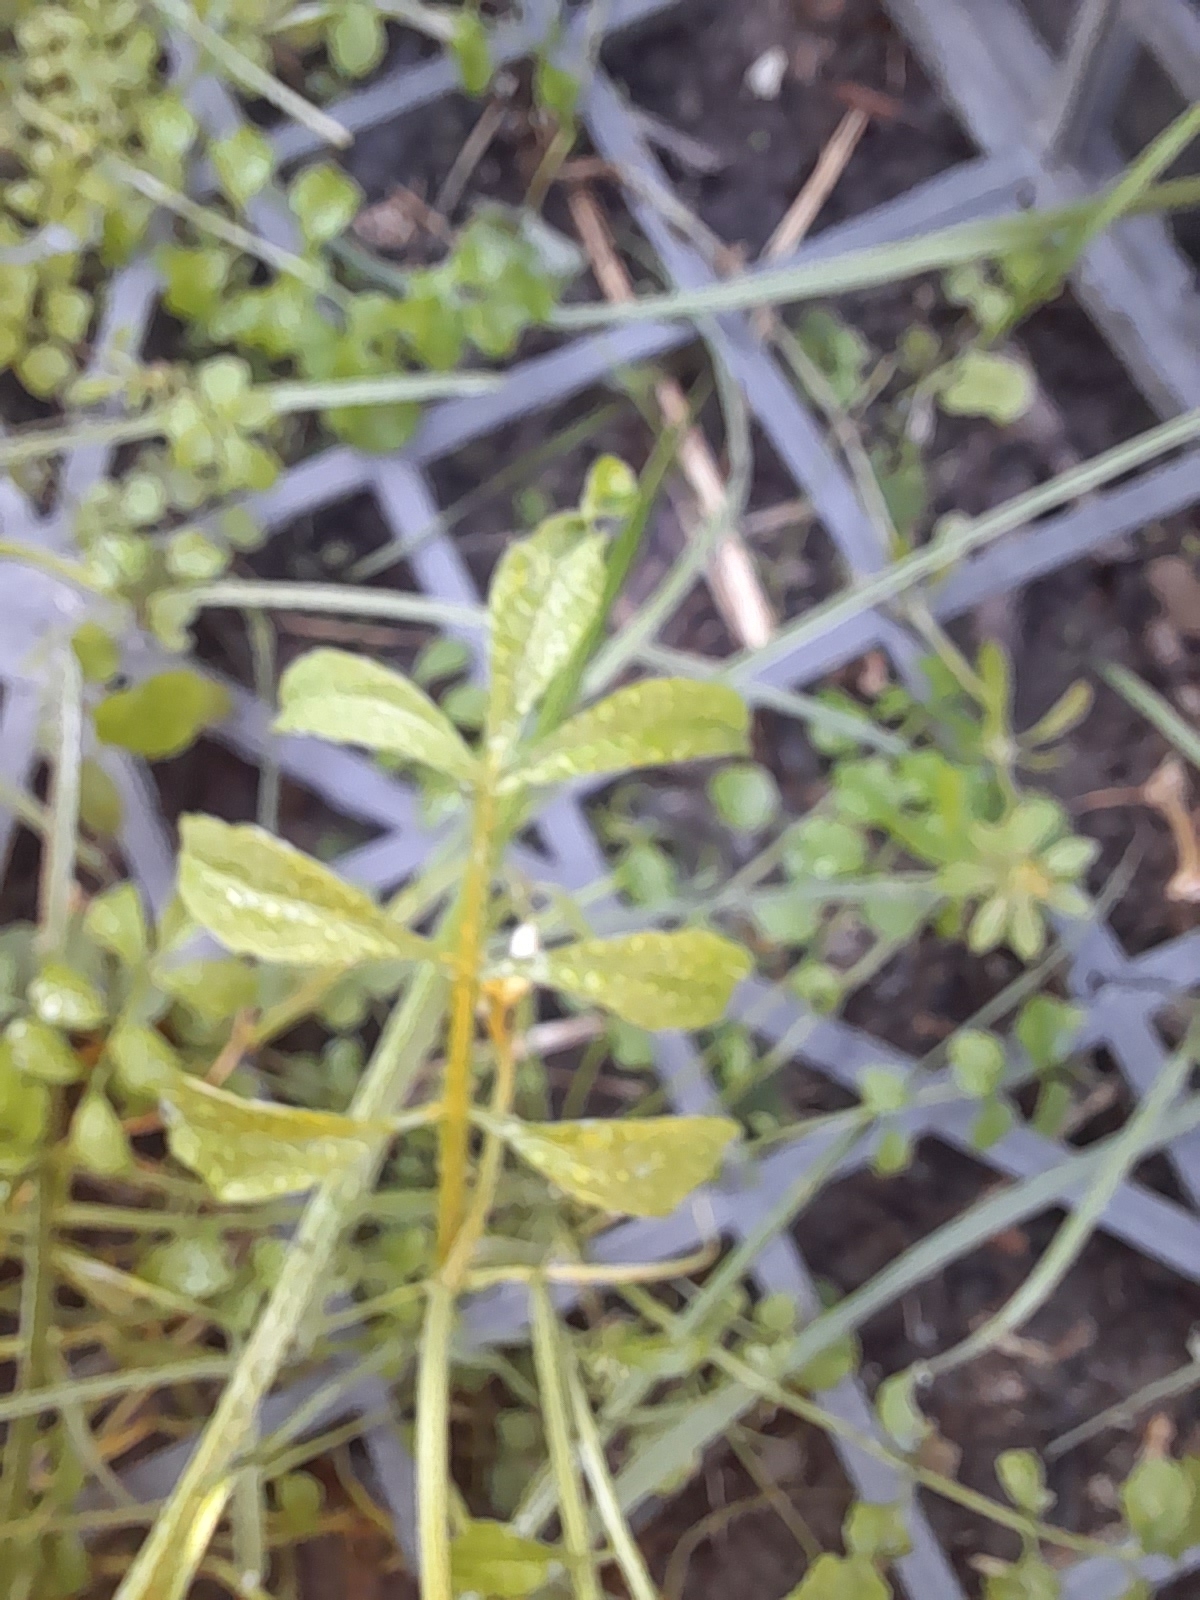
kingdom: Plantae
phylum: Tracheophyta
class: Magnoliopsida
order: Brassicales
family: Brassicaceae
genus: Cardamine
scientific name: Cardamine hirsuta
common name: Hairy bittercress
